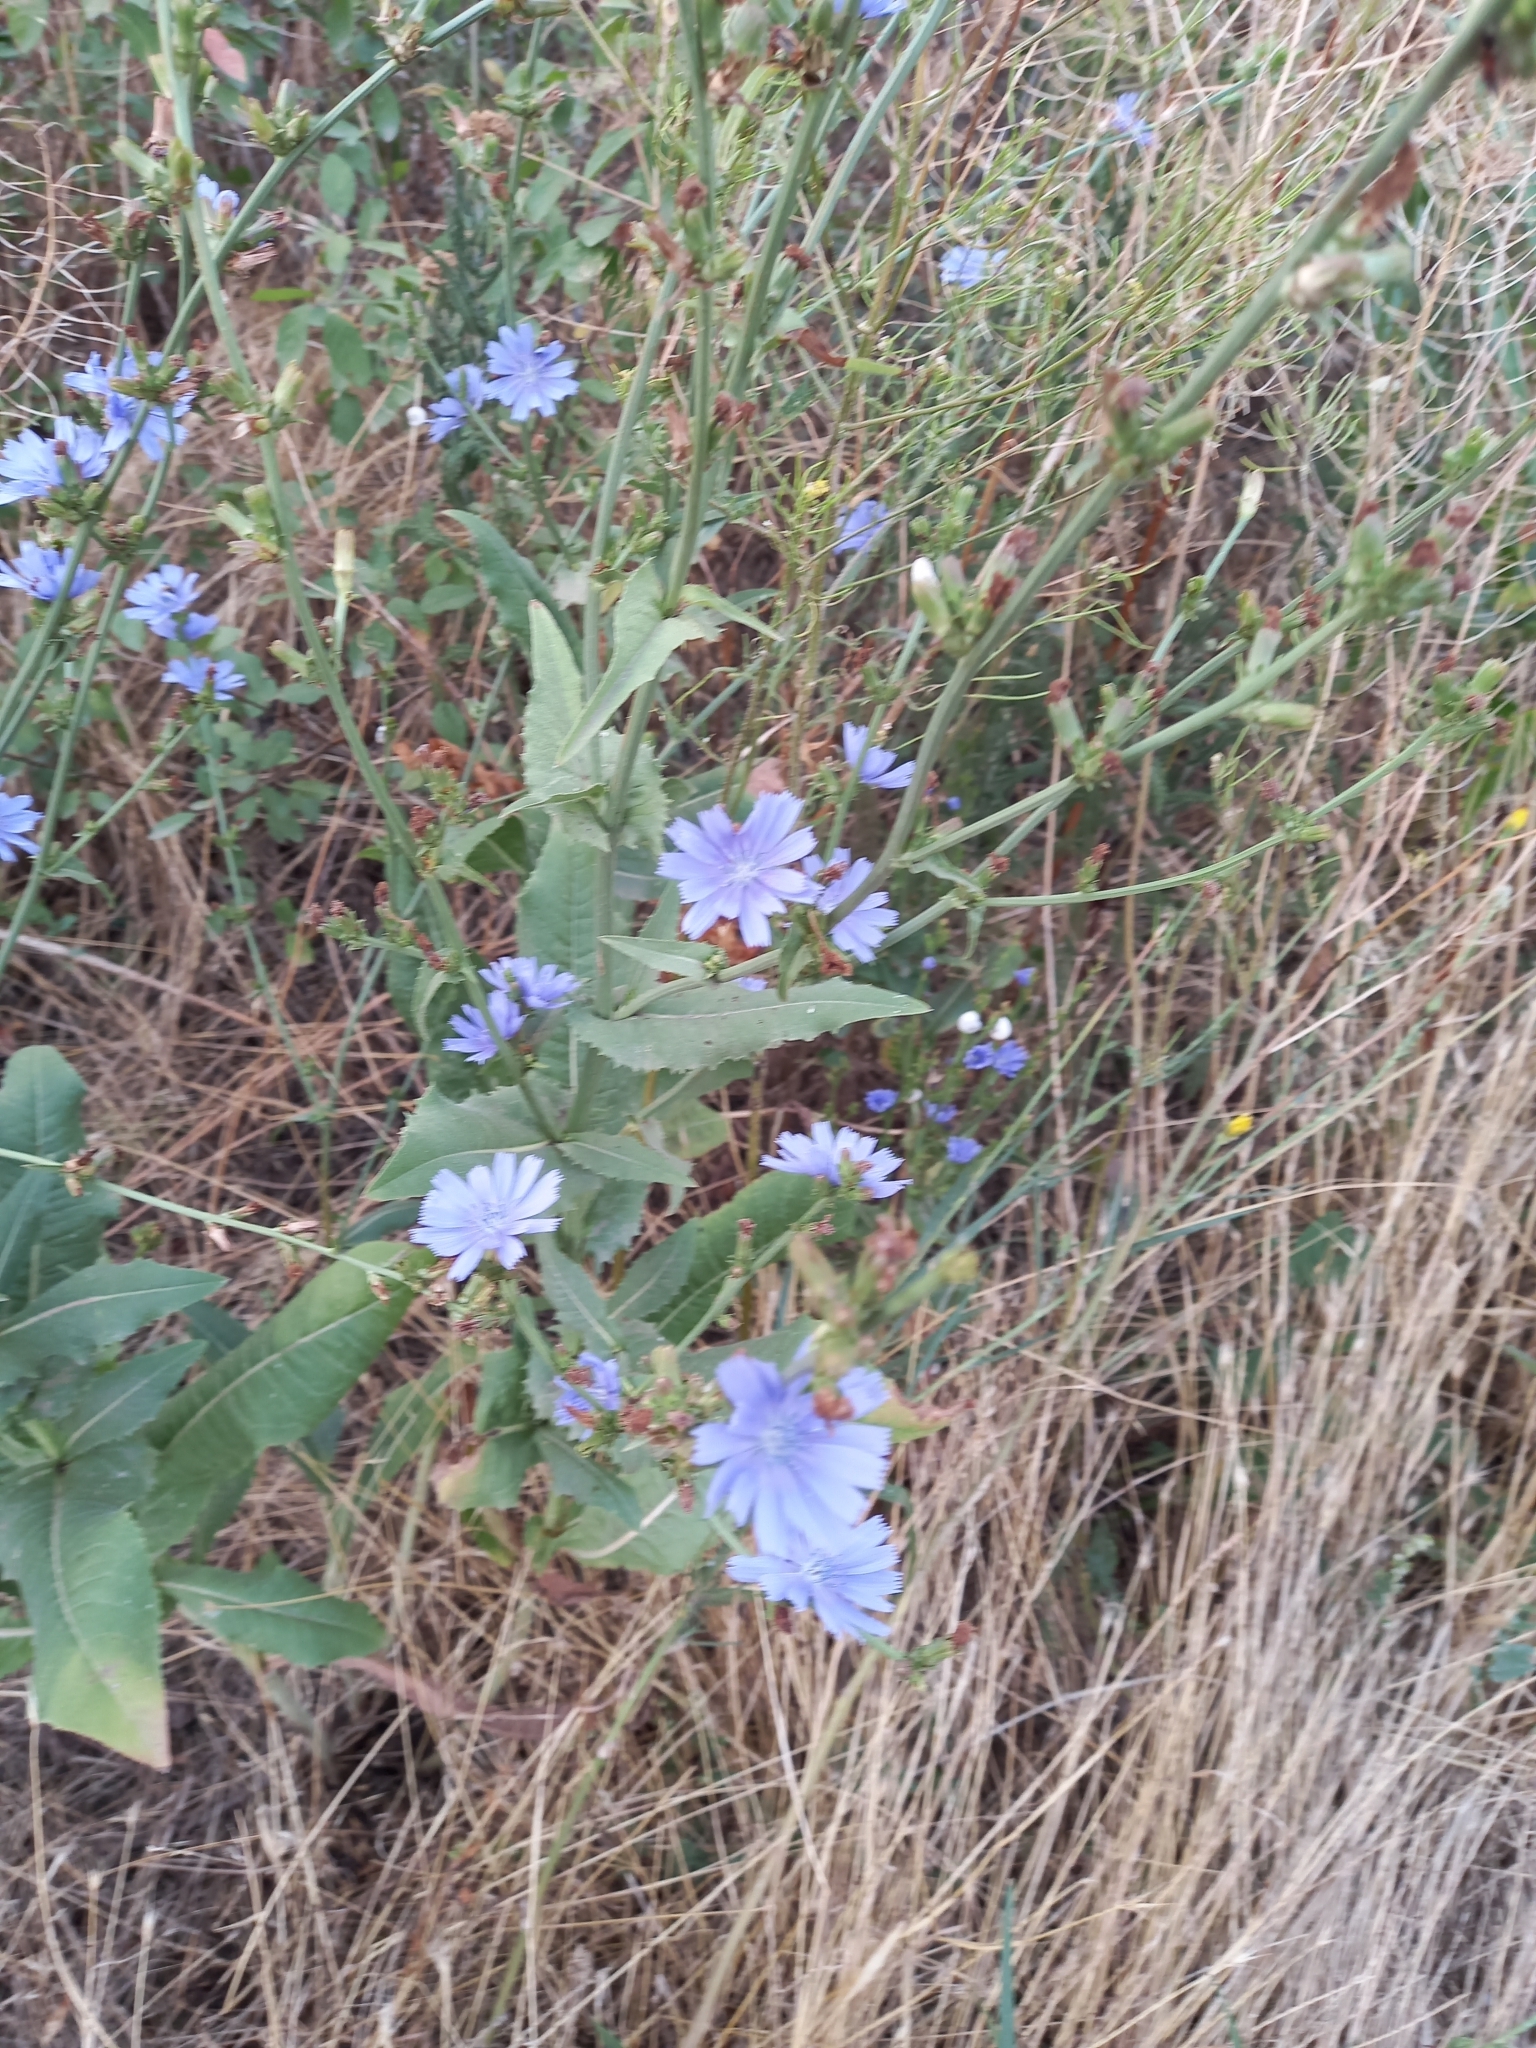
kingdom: Plantae
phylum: Tracheophyta
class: Magnoliopsida
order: Asterales
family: Asteraceae
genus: Cichorium
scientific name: Cichorium intybus
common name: Chicory
